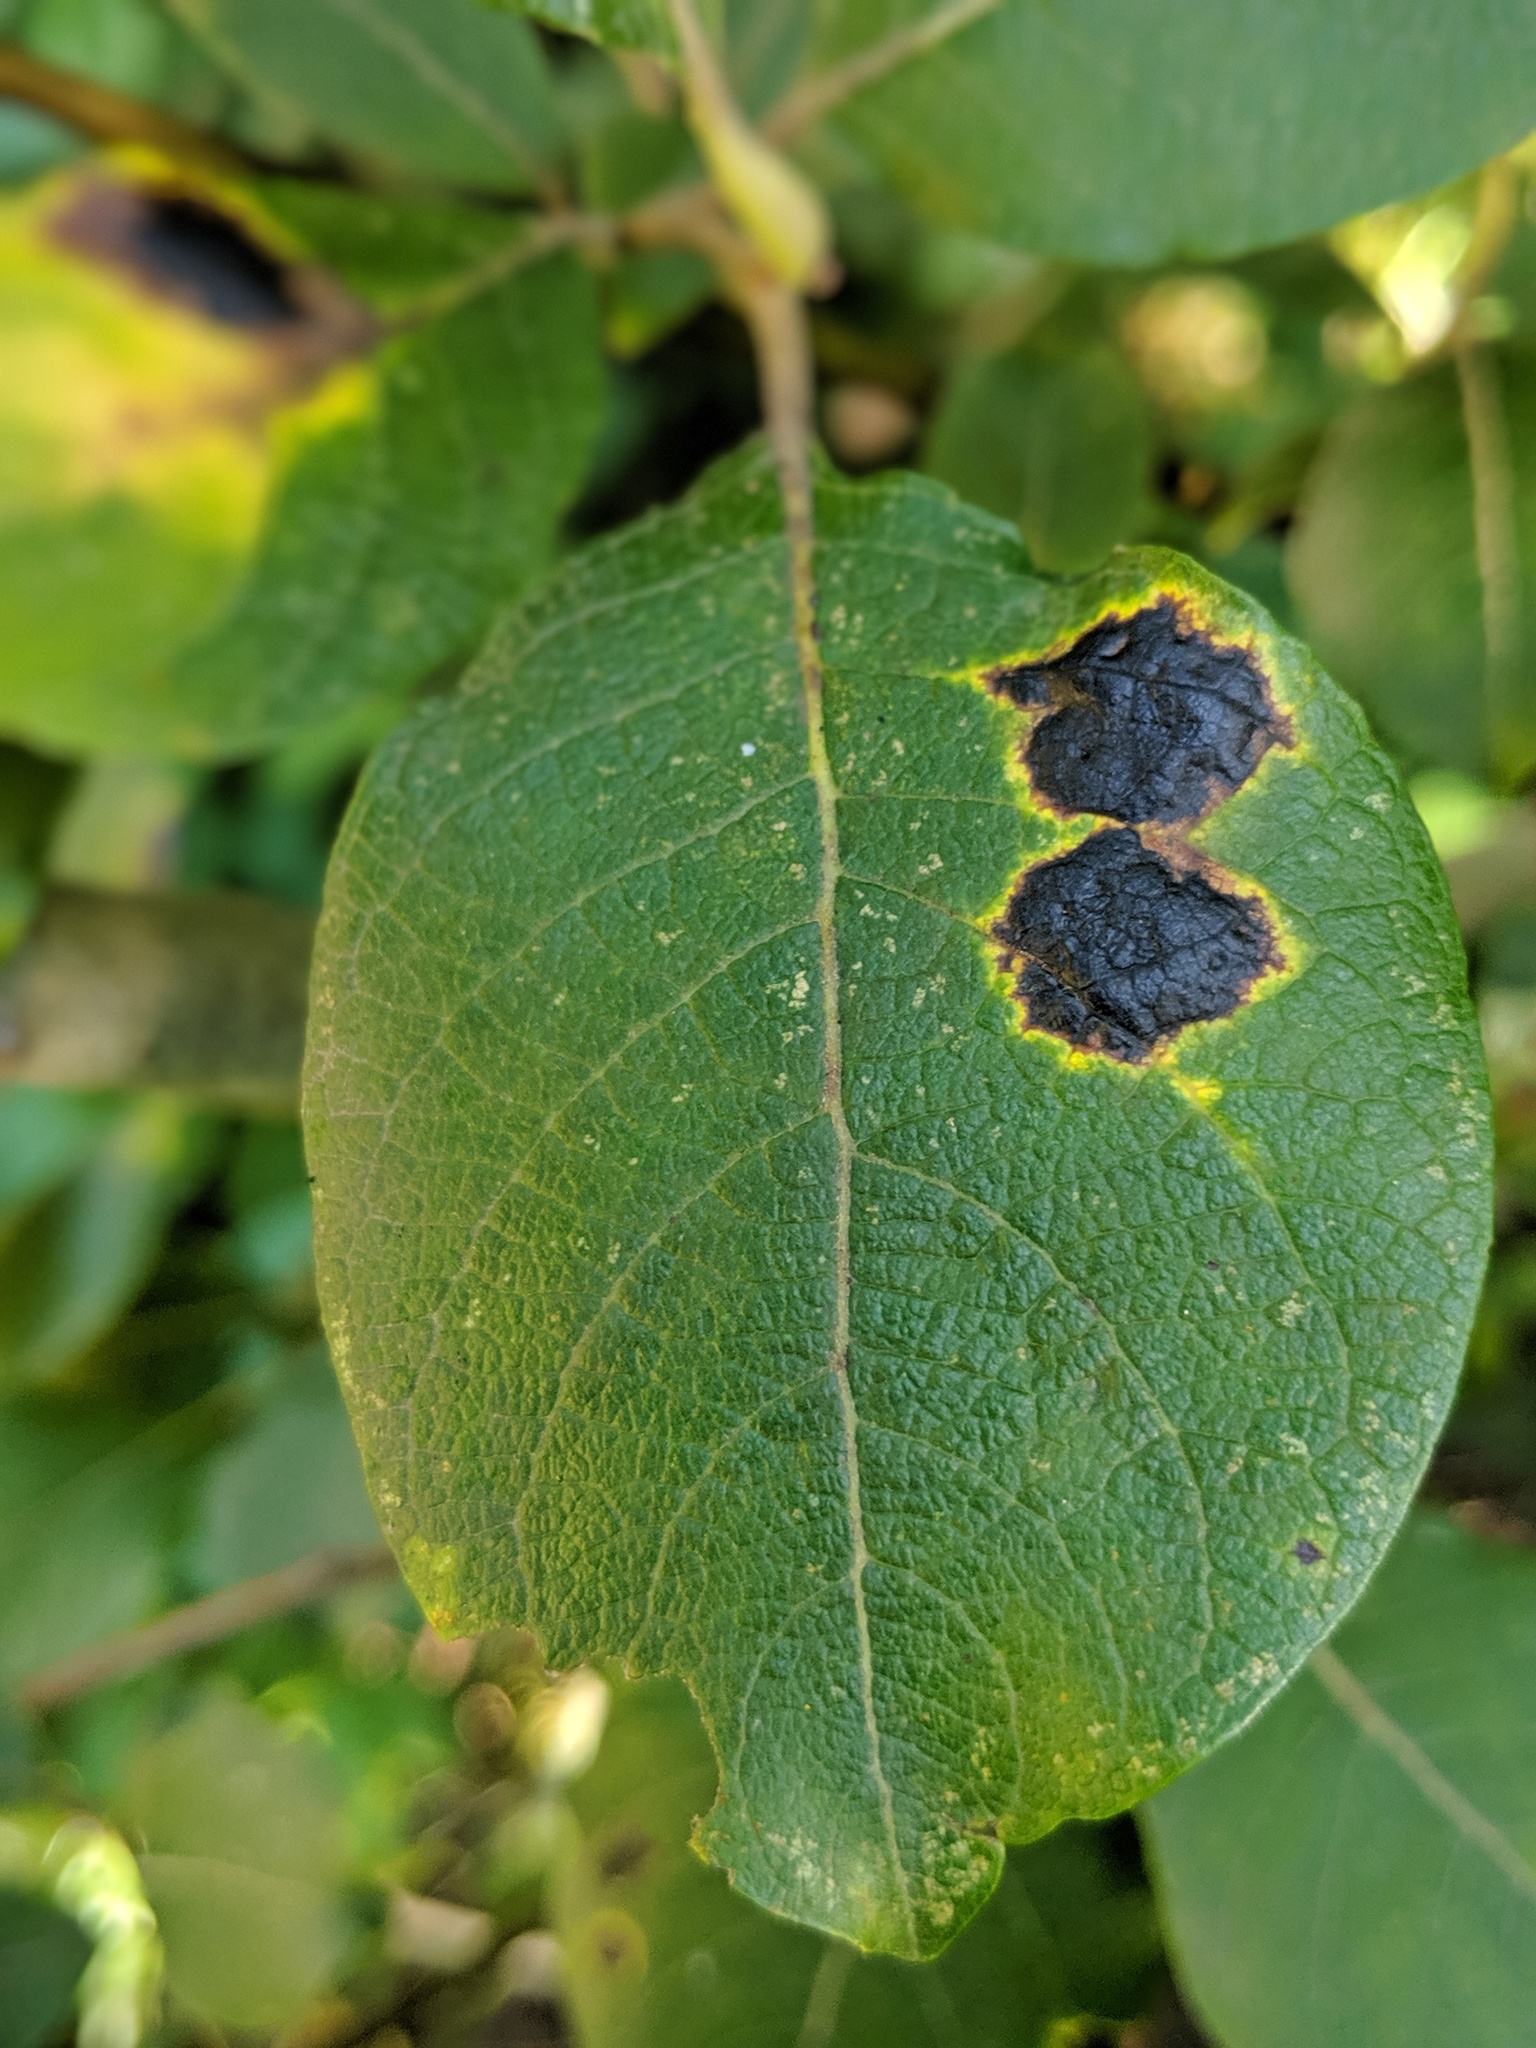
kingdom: Fungi
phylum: Ascomycota
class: Leotiomycetes
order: Rhytismatales
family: Rhytismataceae
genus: Rhytisma
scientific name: Rhytisma salicinum
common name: Willow tarspot
